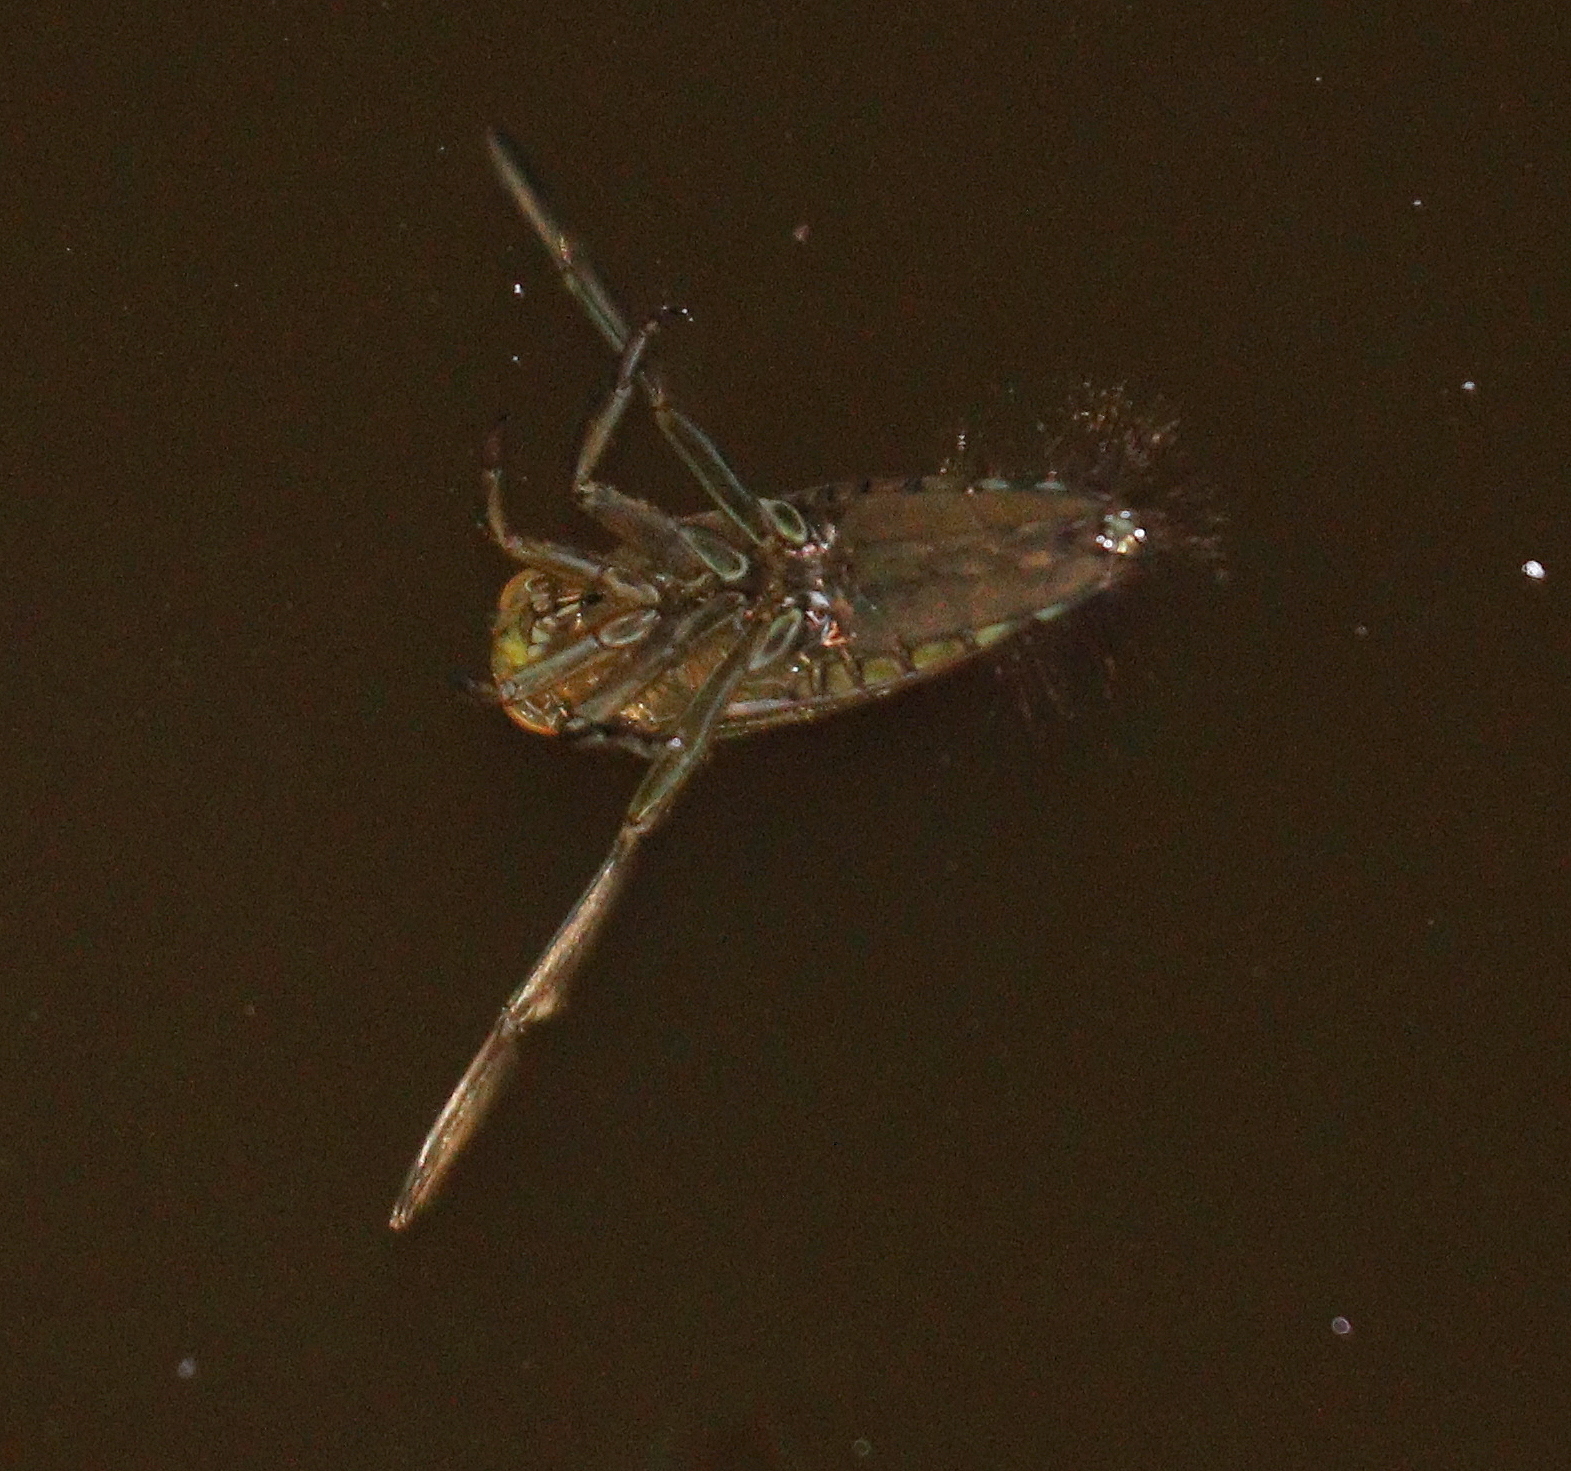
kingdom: Animalia
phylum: Arthropoda
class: Insecta
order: Hemiptera
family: Notonectidae
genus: Notonecta
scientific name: Notonecta
